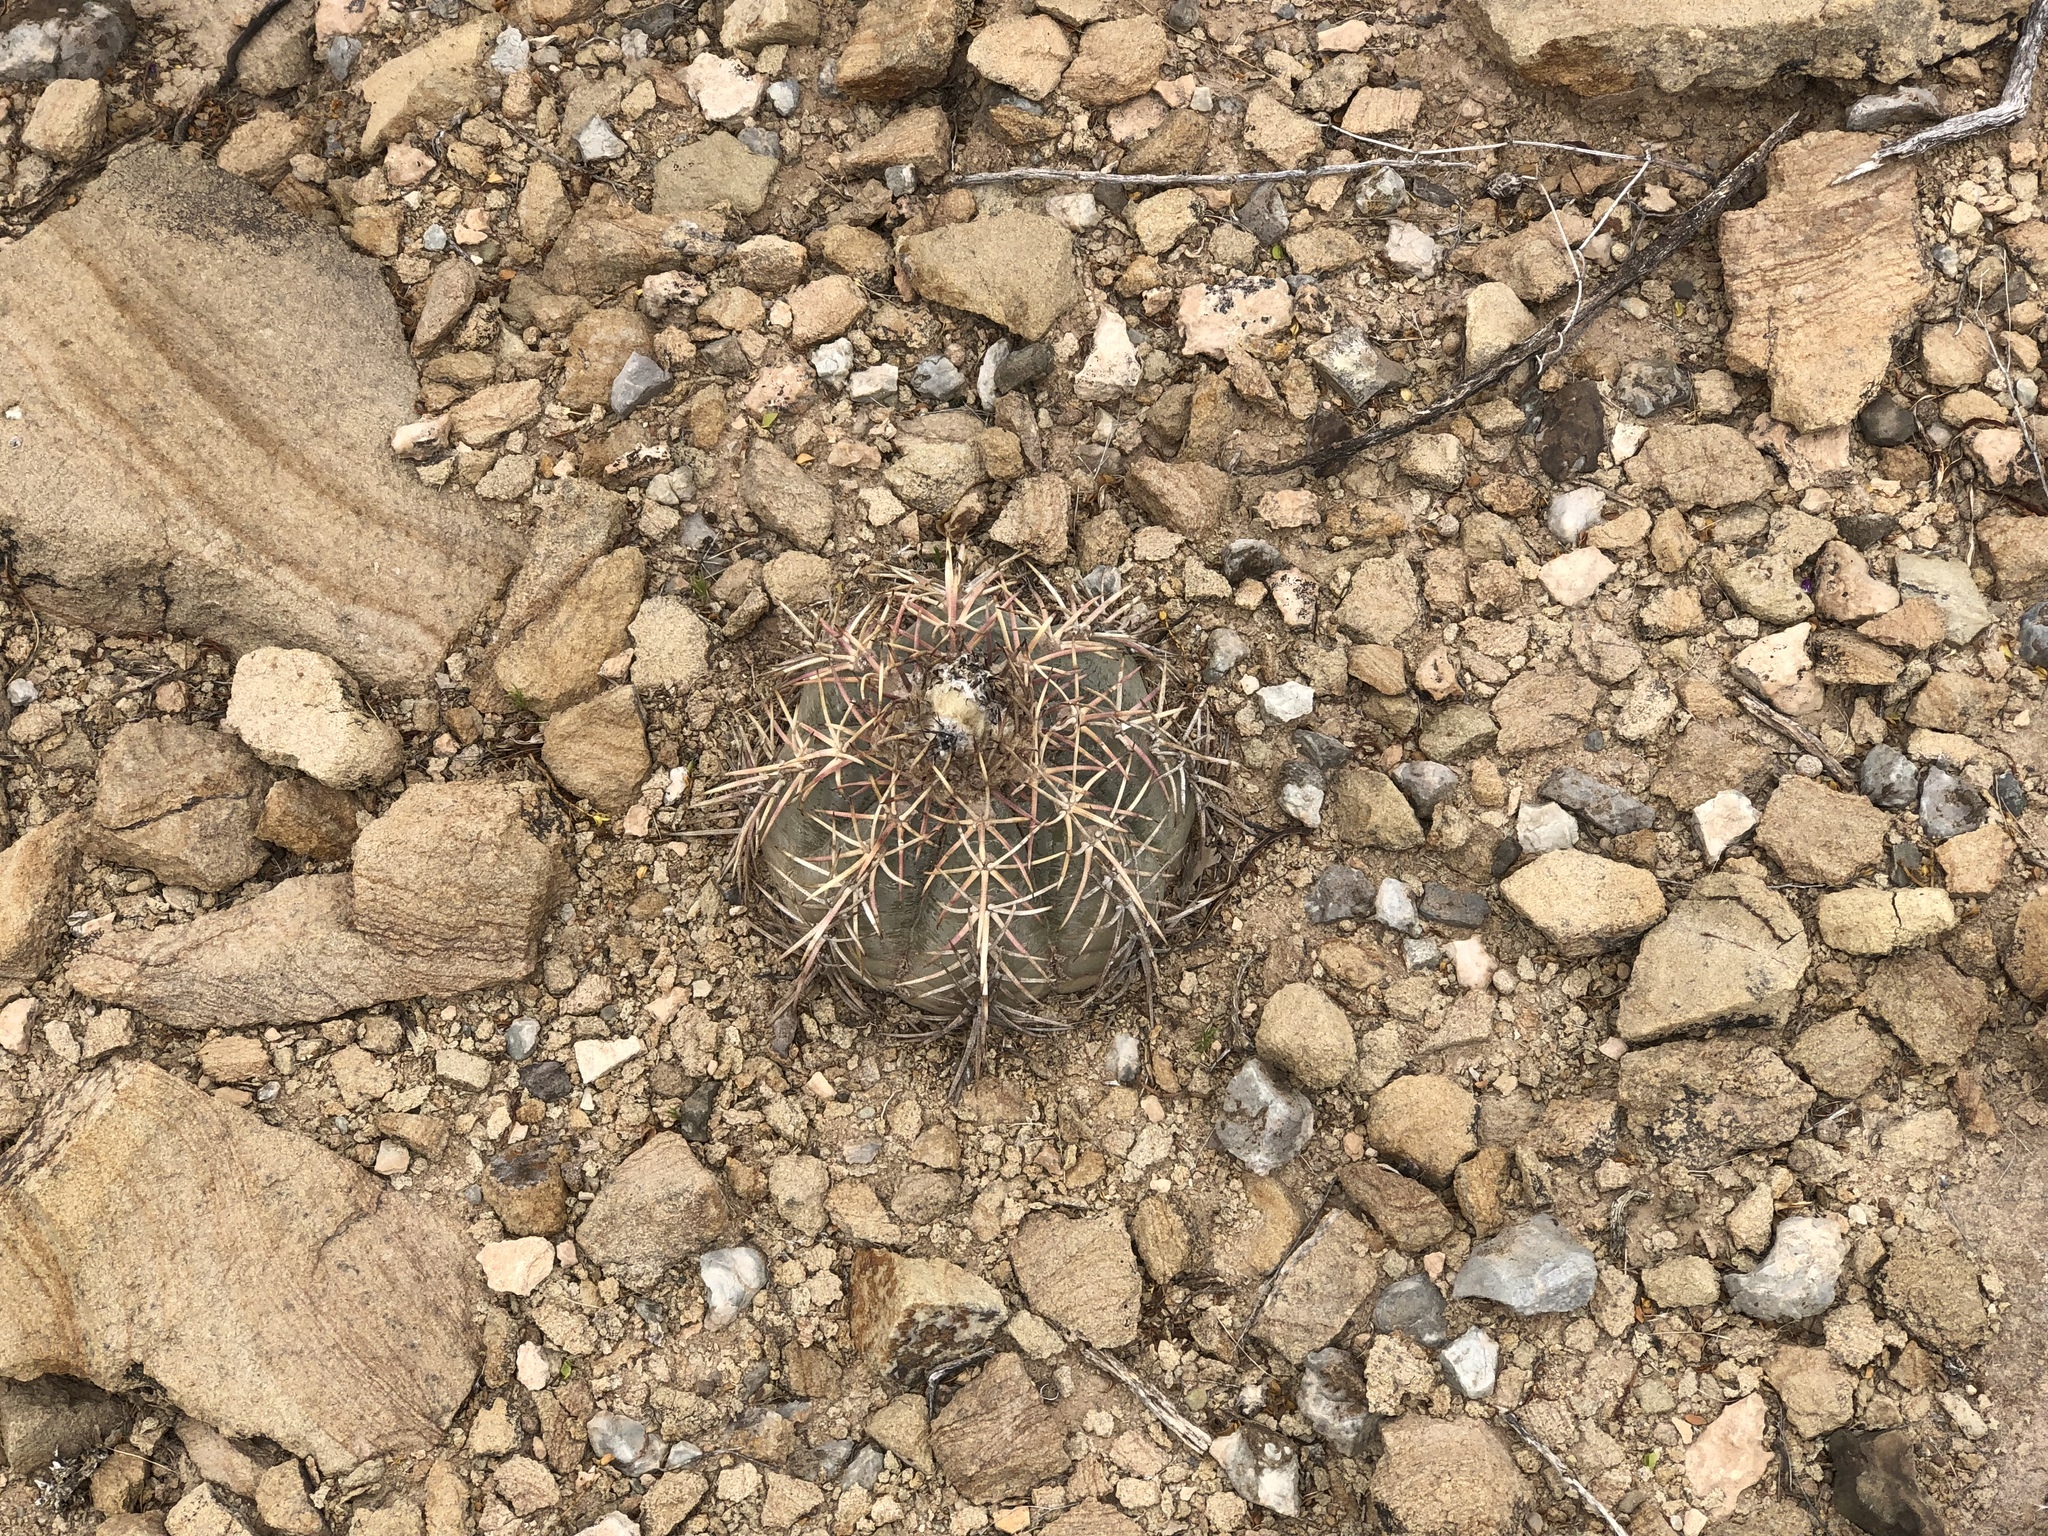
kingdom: Plantae
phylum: Tracheophyta
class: Magnoliopsida
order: Caryophyllales
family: Cactaceae
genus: Echinocactus
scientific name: Echinocactus horizonthalonius
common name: Devilshead
